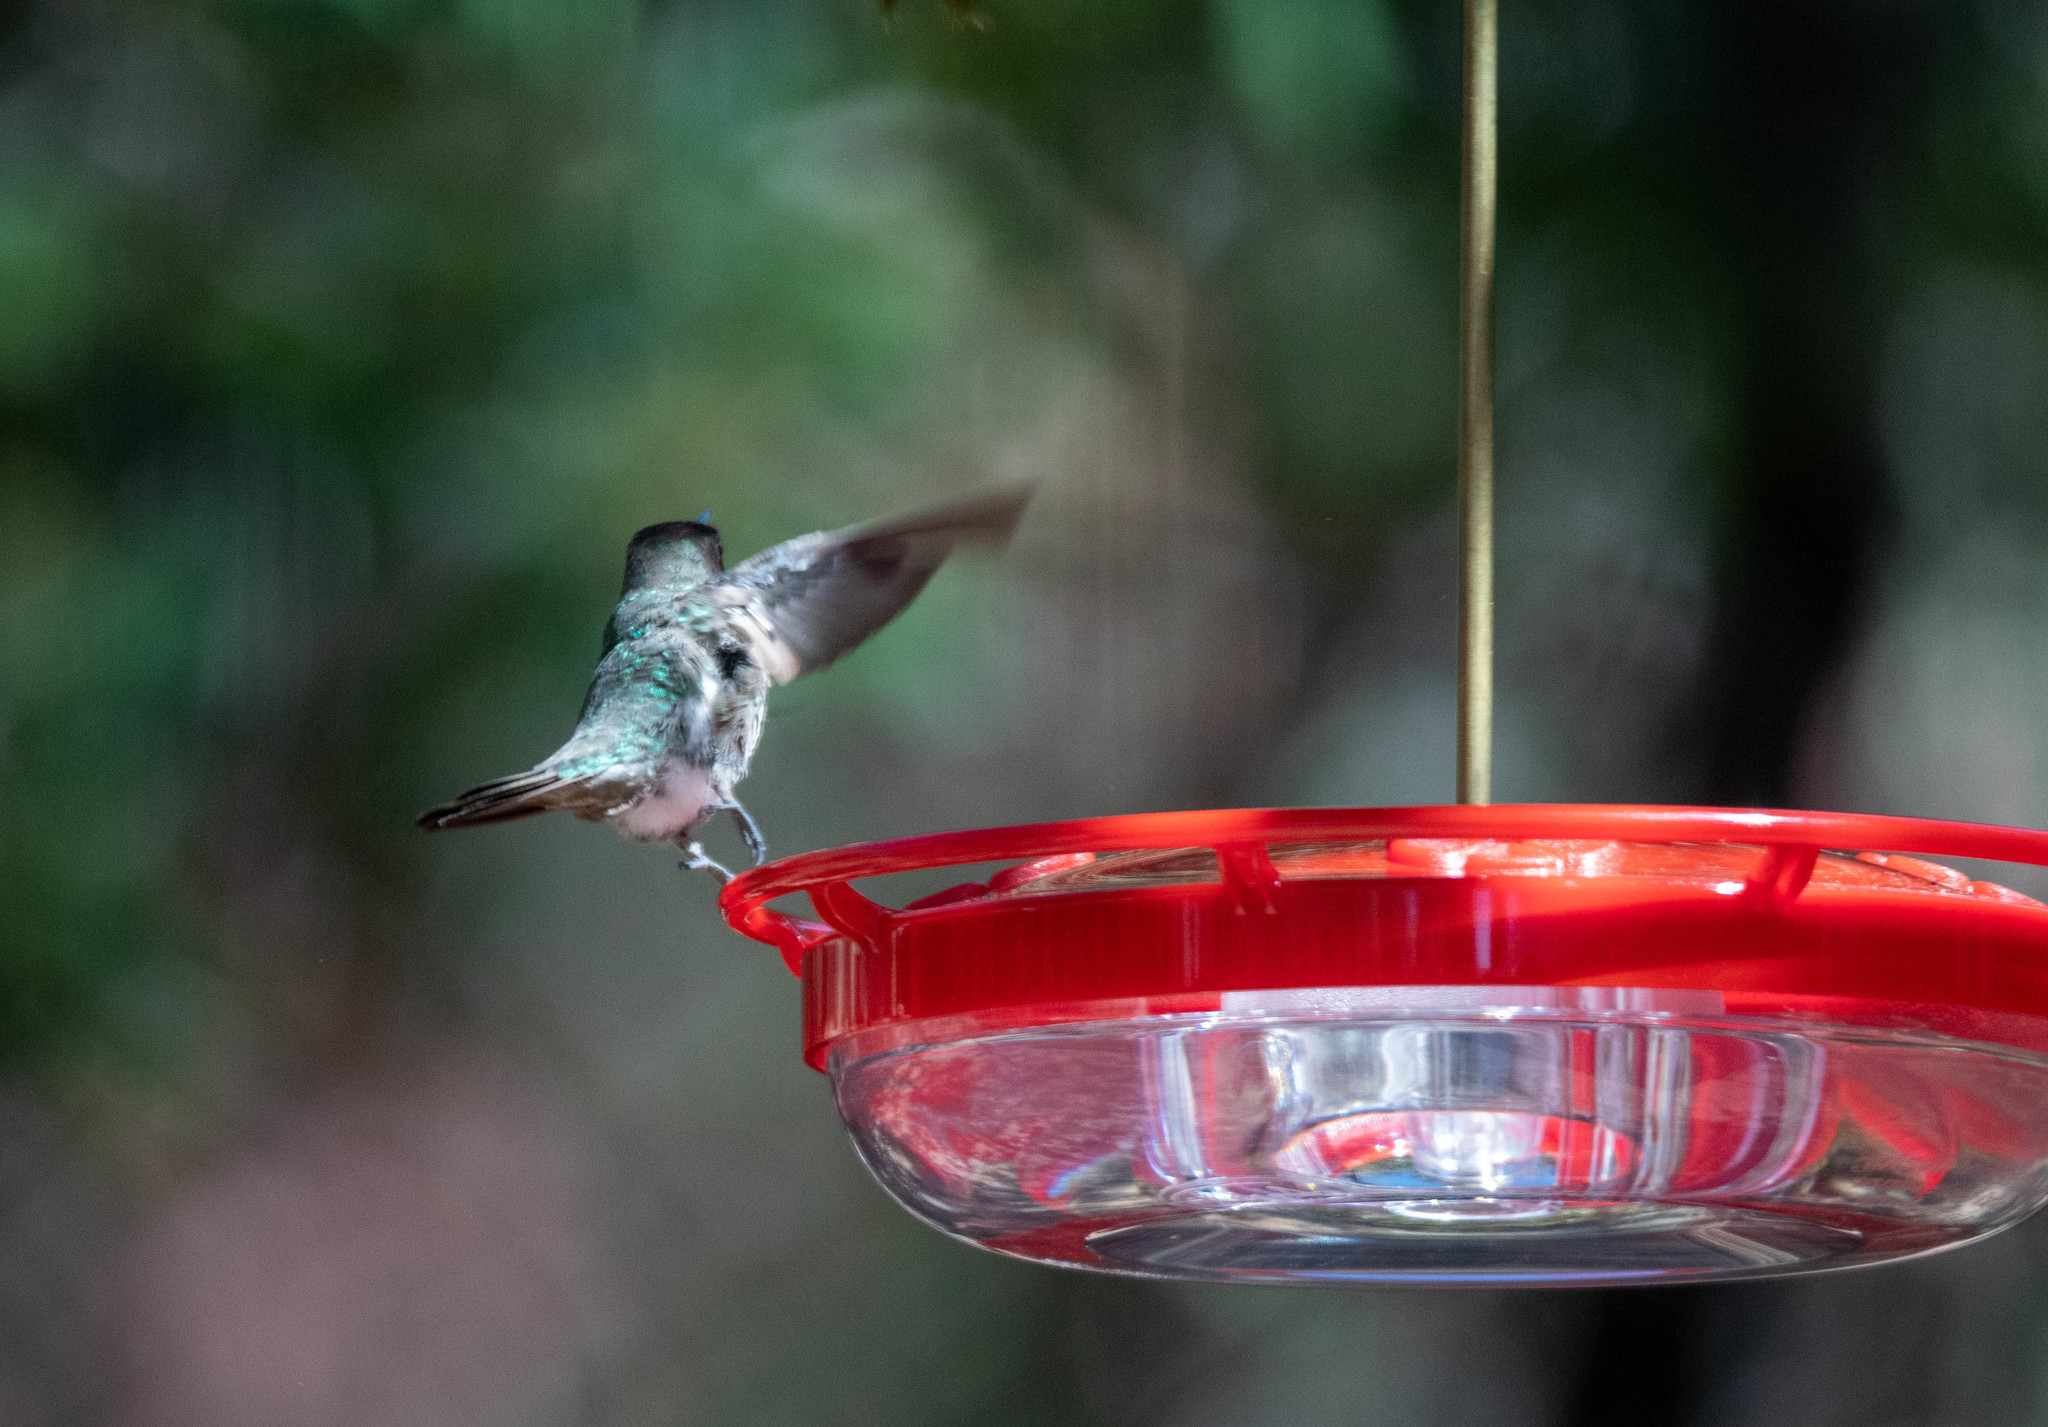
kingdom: Animalia
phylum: Chordata
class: Aves
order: Apodiformes
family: Trochilidae
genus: Calypte
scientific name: Calypte anna
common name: Anna's hummingbird
